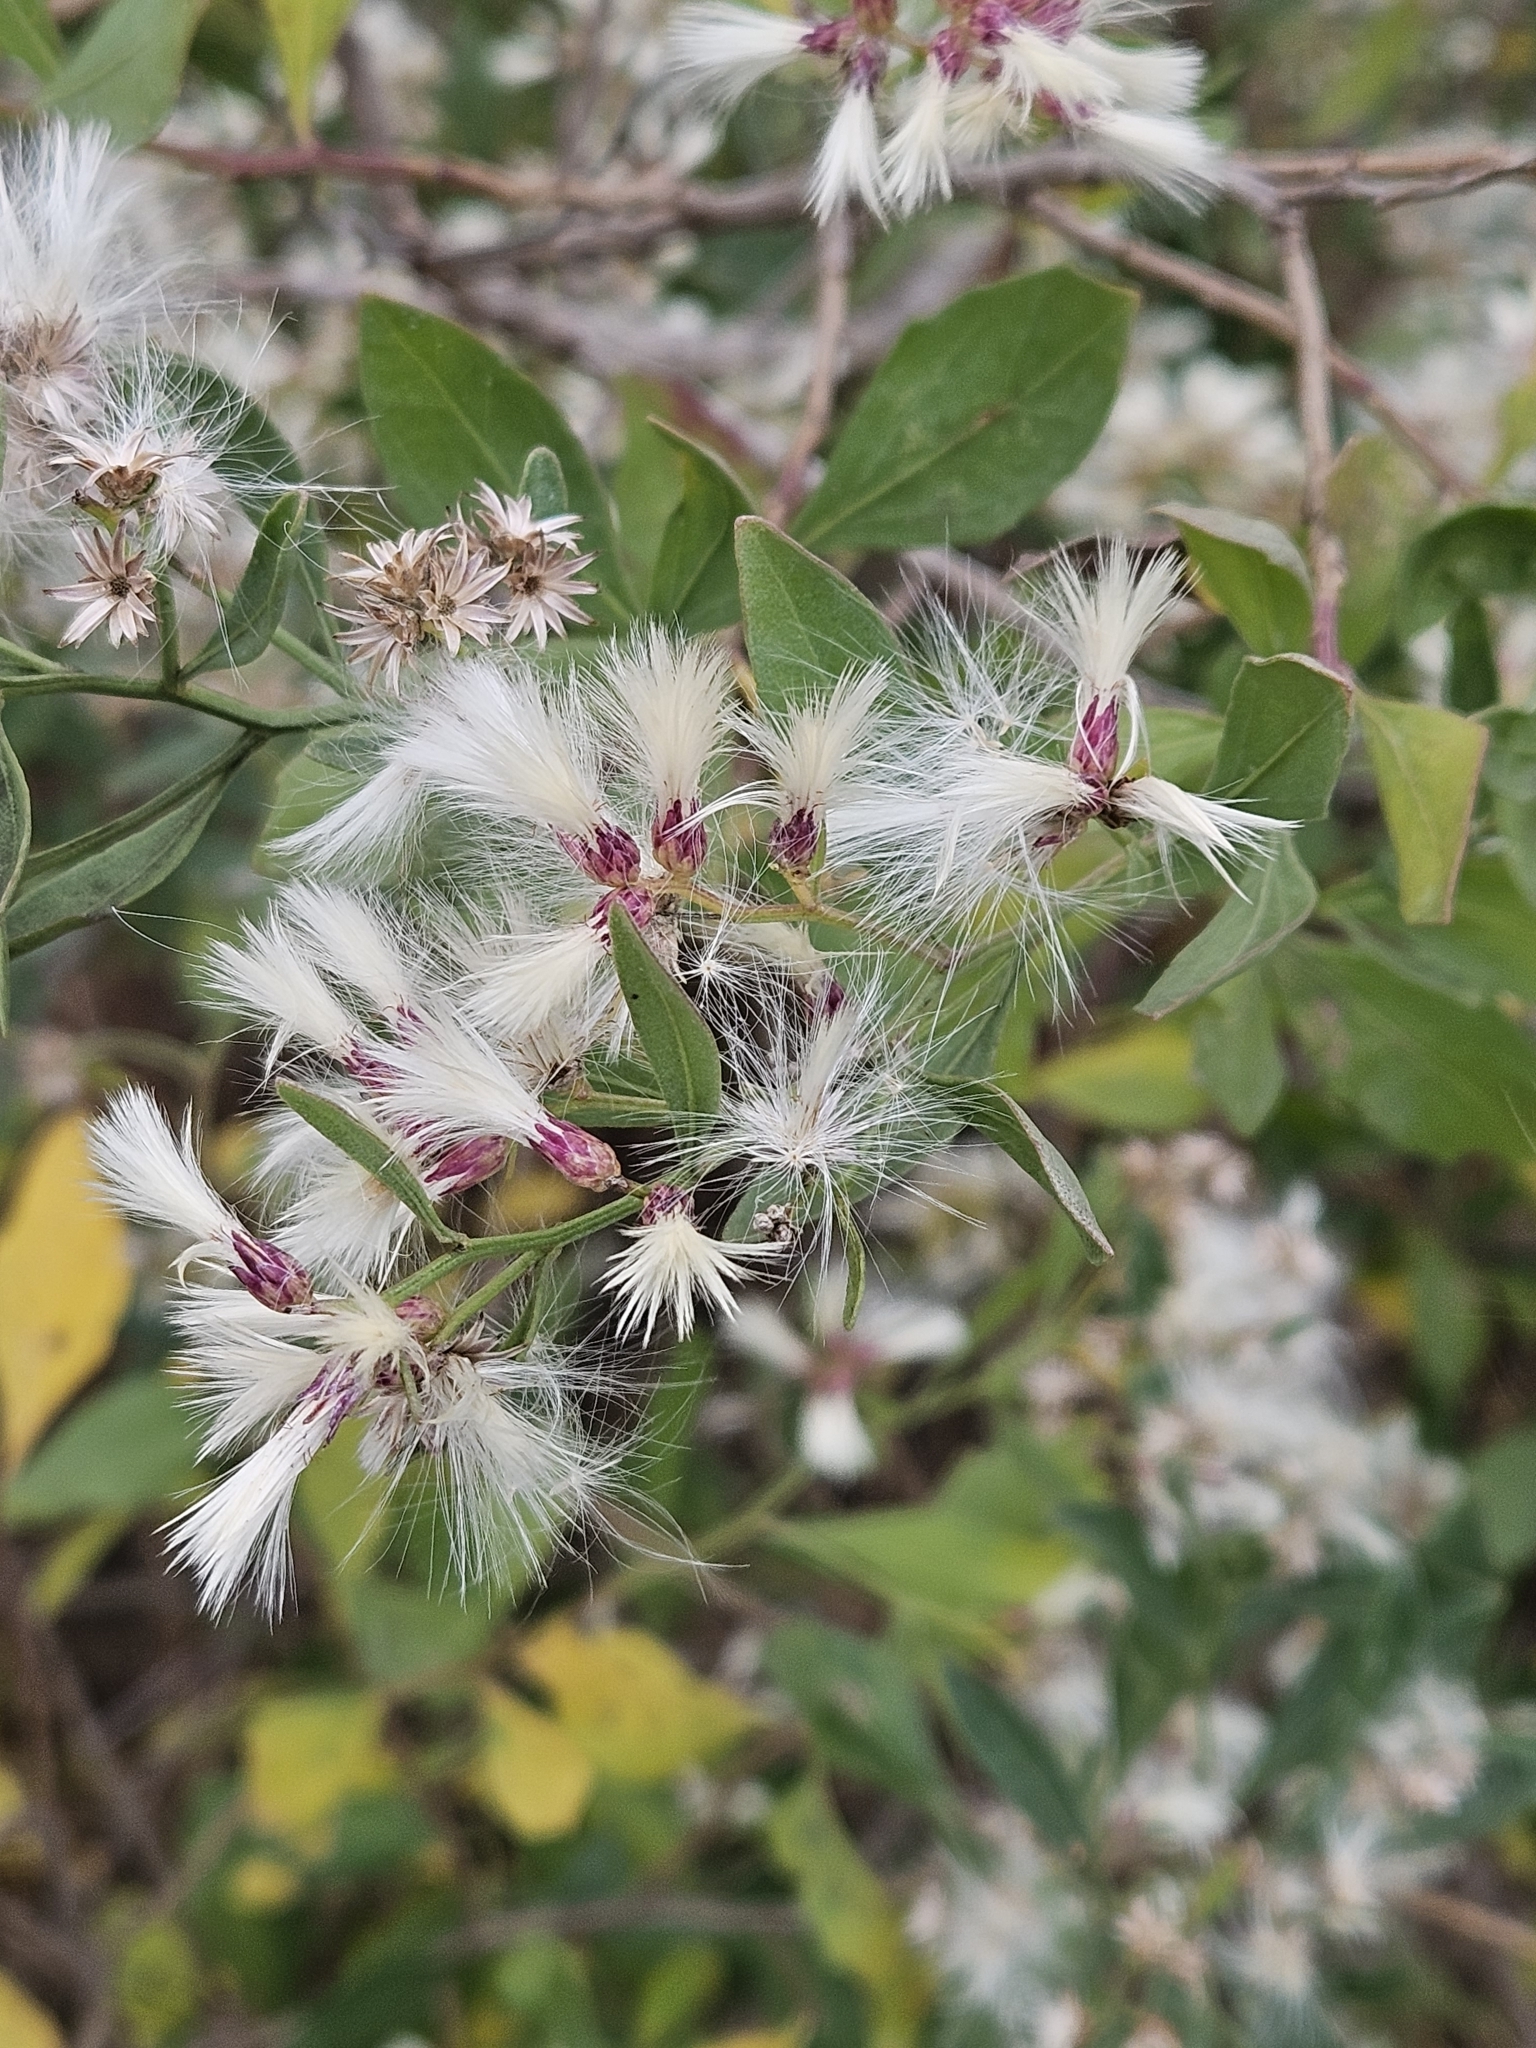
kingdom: Plantae
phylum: Tracheophyta
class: Magnoliopsida
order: Asterales
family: Asteraceae
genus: Baccharis
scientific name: Baccharis halimifolia
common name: Eastern baccharis
